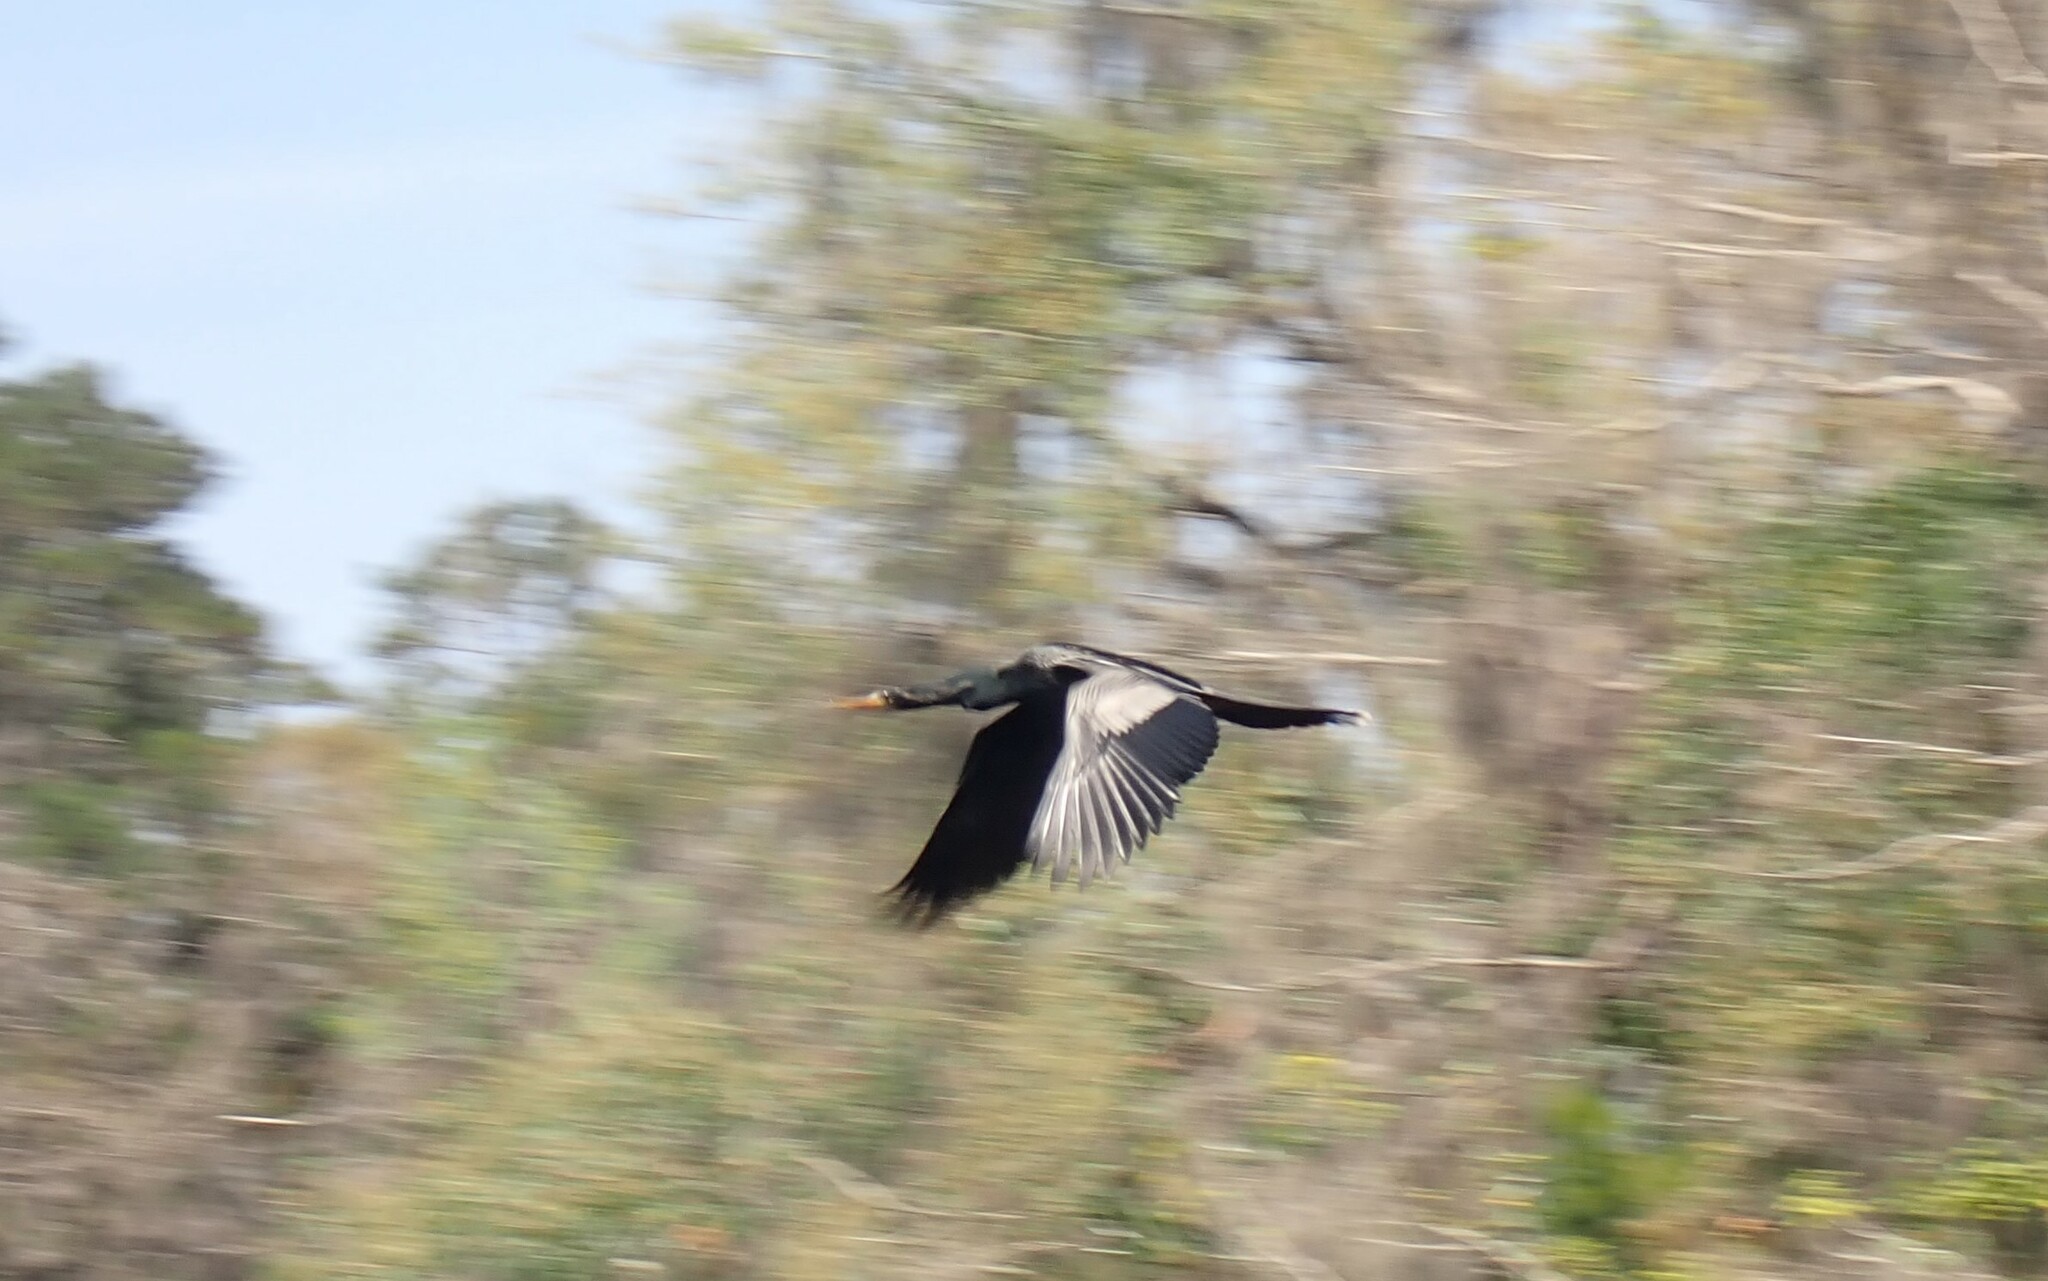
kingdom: Animalia
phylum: Chordata
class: Aves
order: Suliformes
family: Anhingidae
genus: Anhinga
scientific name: Anhinga anhinga
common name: Anhinga
